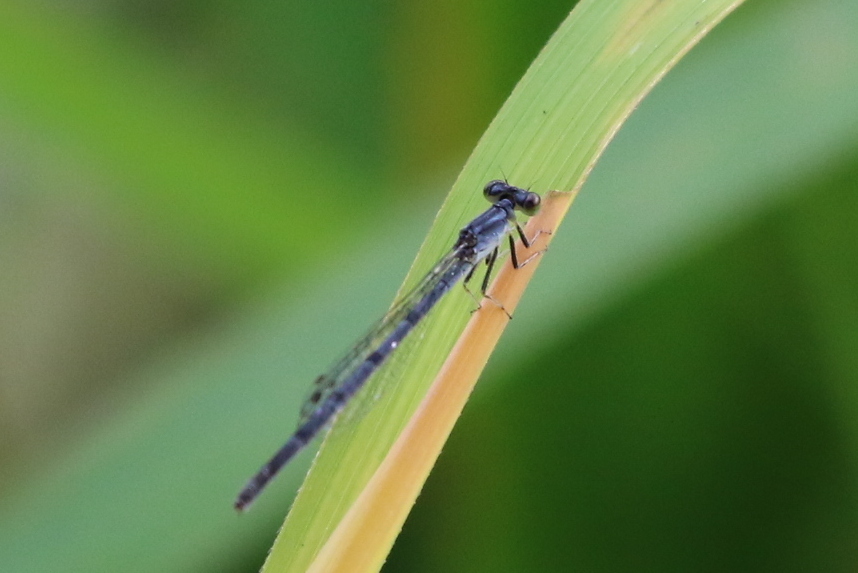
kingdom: Animalia
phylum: Arthropoda
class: Insecta
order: Odonata
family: Coenagrionidae
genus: Ischnura
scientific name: Ischnura posita
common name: Fragile forktail
